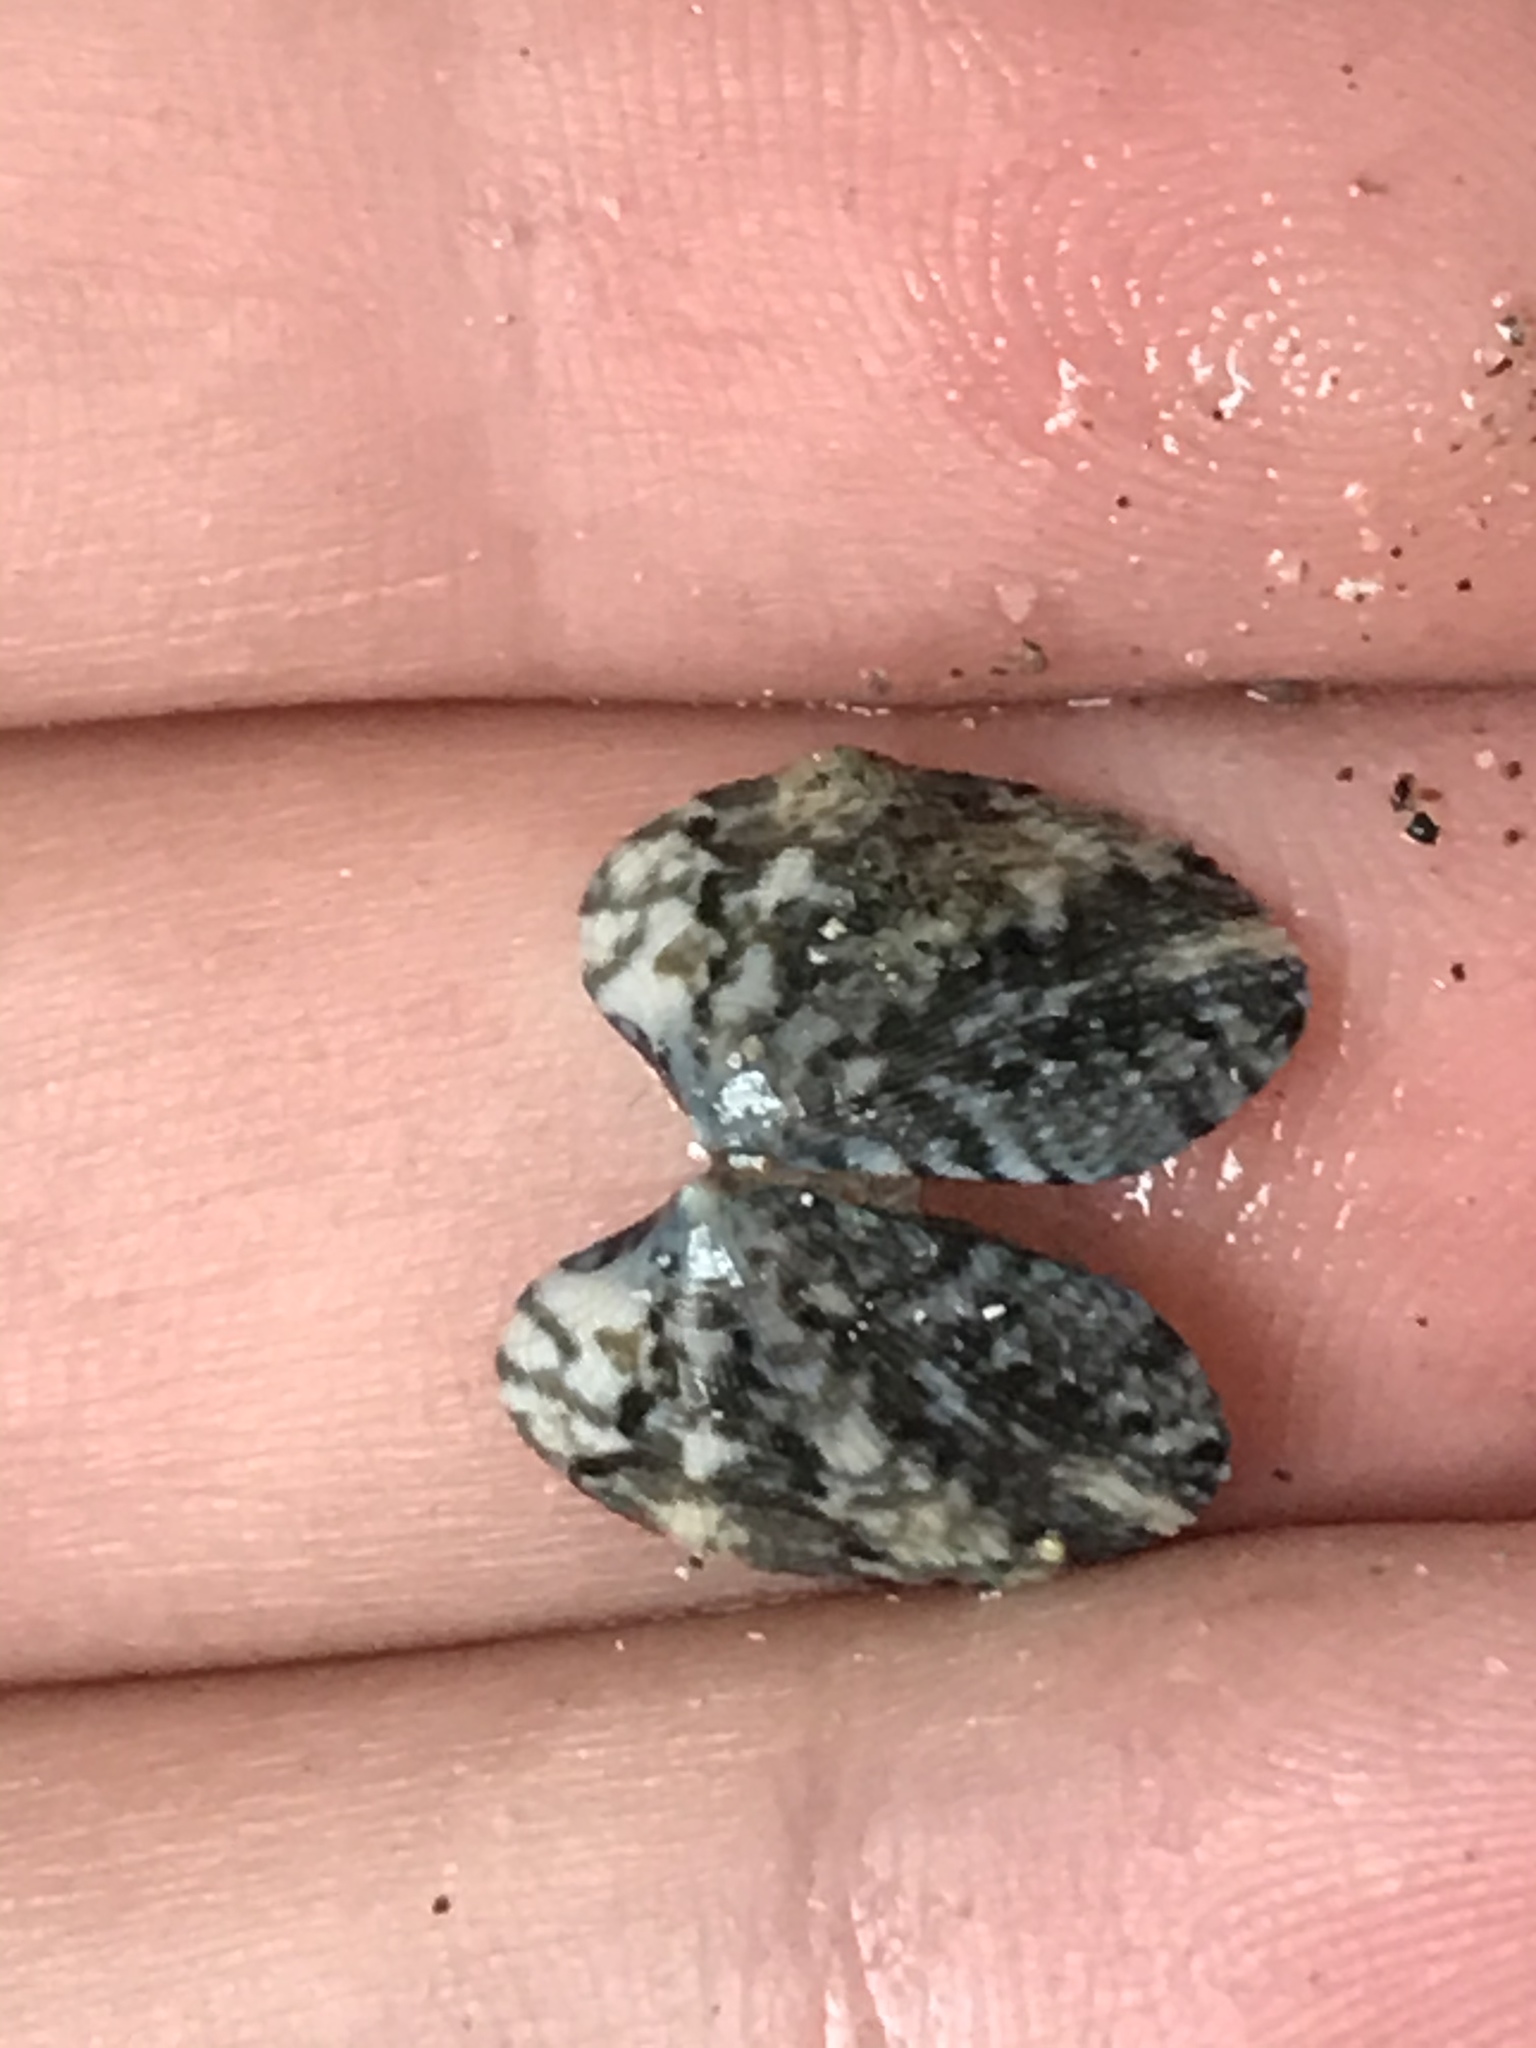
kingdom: Animalia
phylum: Mollusca
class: Bivalvia
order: Venerida
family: Veneridae
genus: Ruditapes
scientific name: Ruditapes philippinarum
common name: Manila clam
